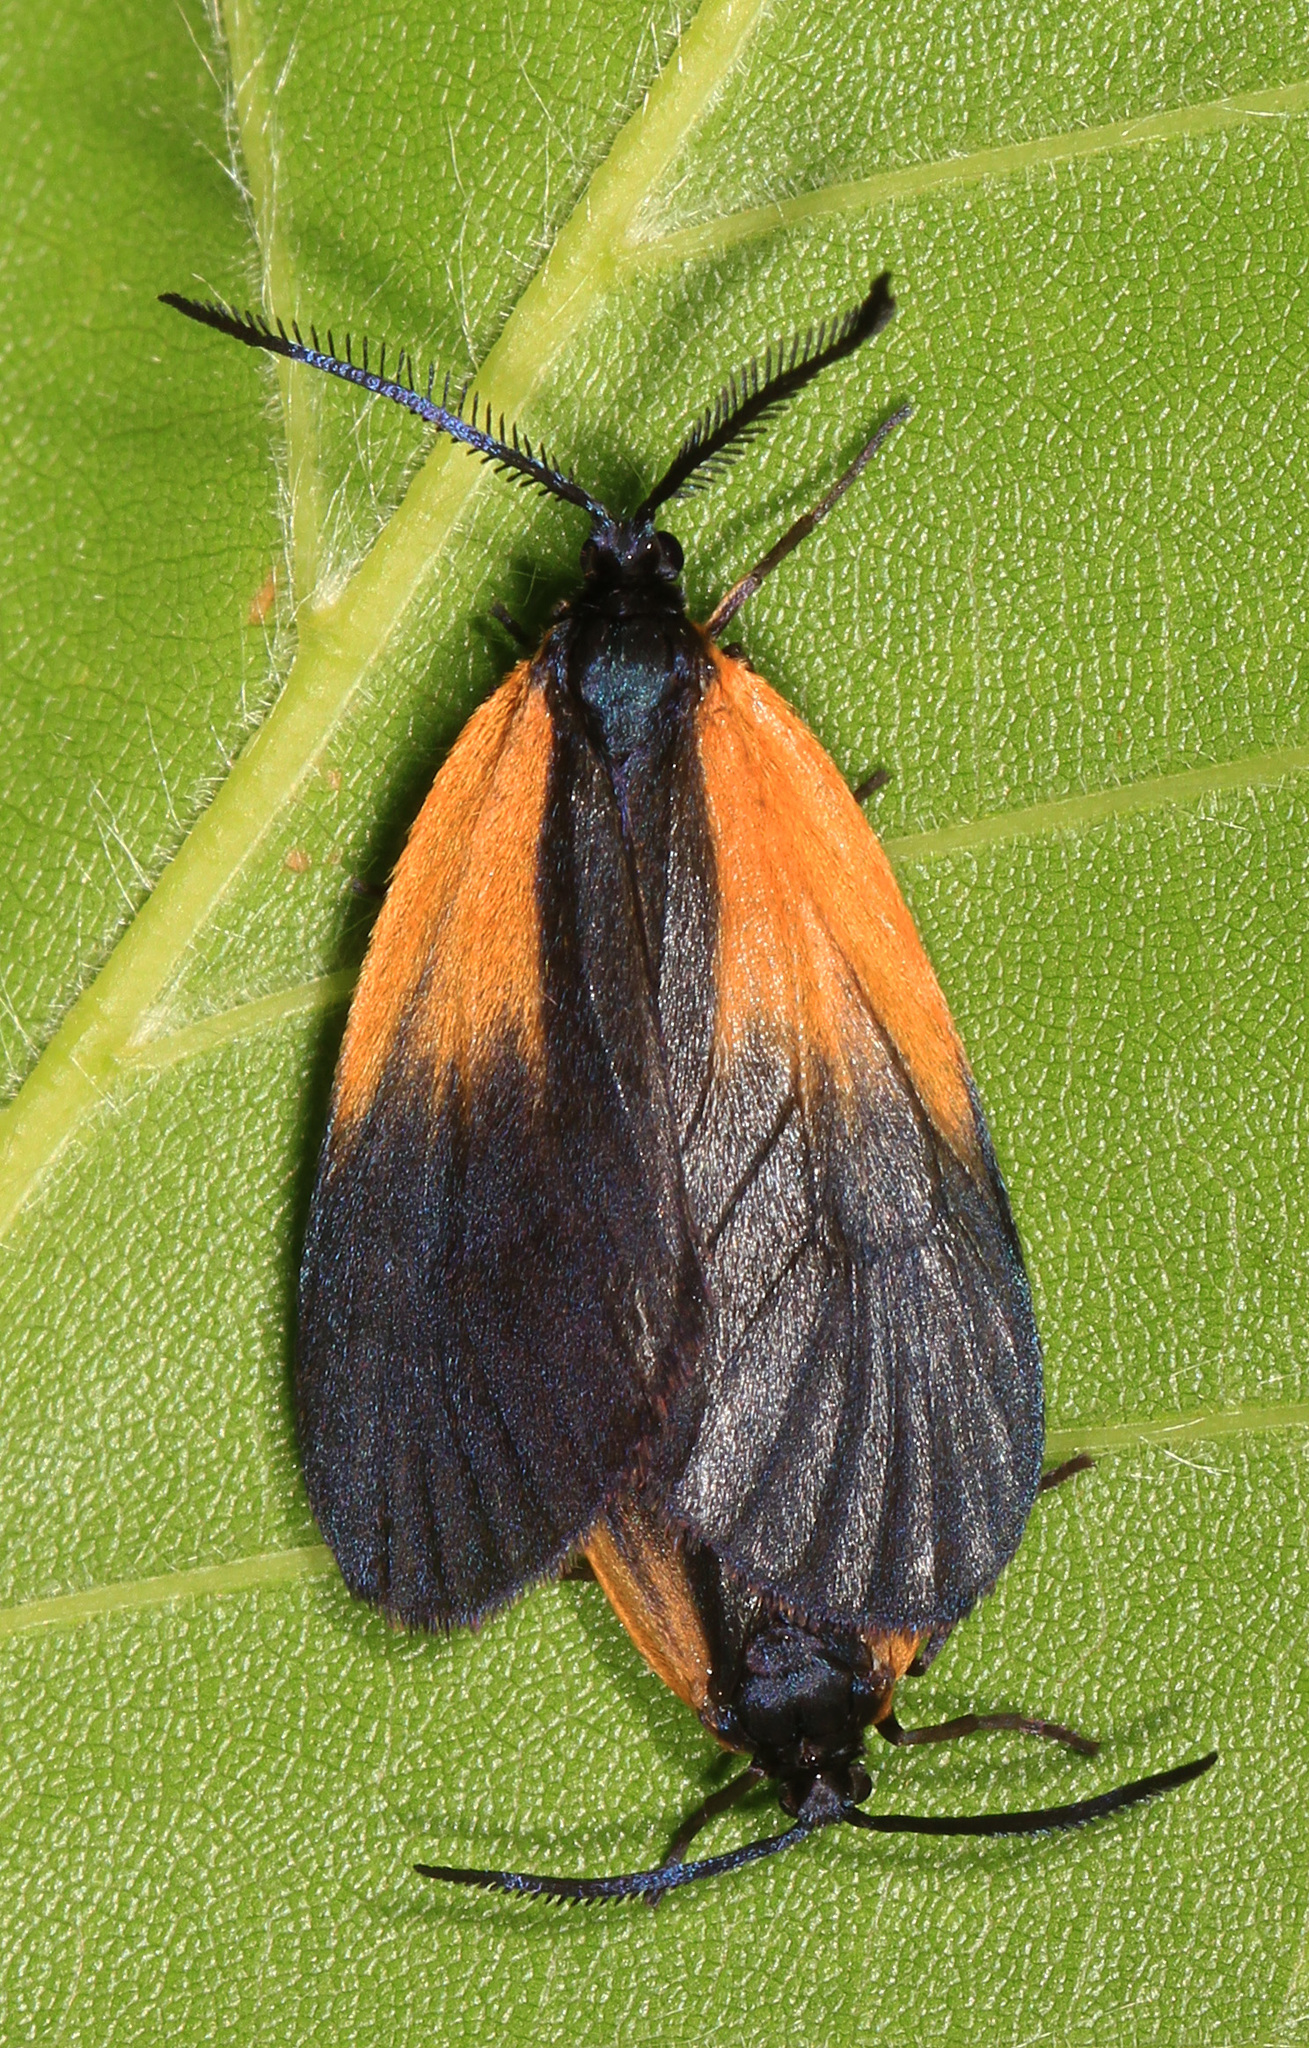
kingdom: Animalia
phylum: Arthropoda
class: Insecta
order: Lepidoptera
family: Zygaenidae
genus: Malthaca
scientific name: Malthaca dimidiata
